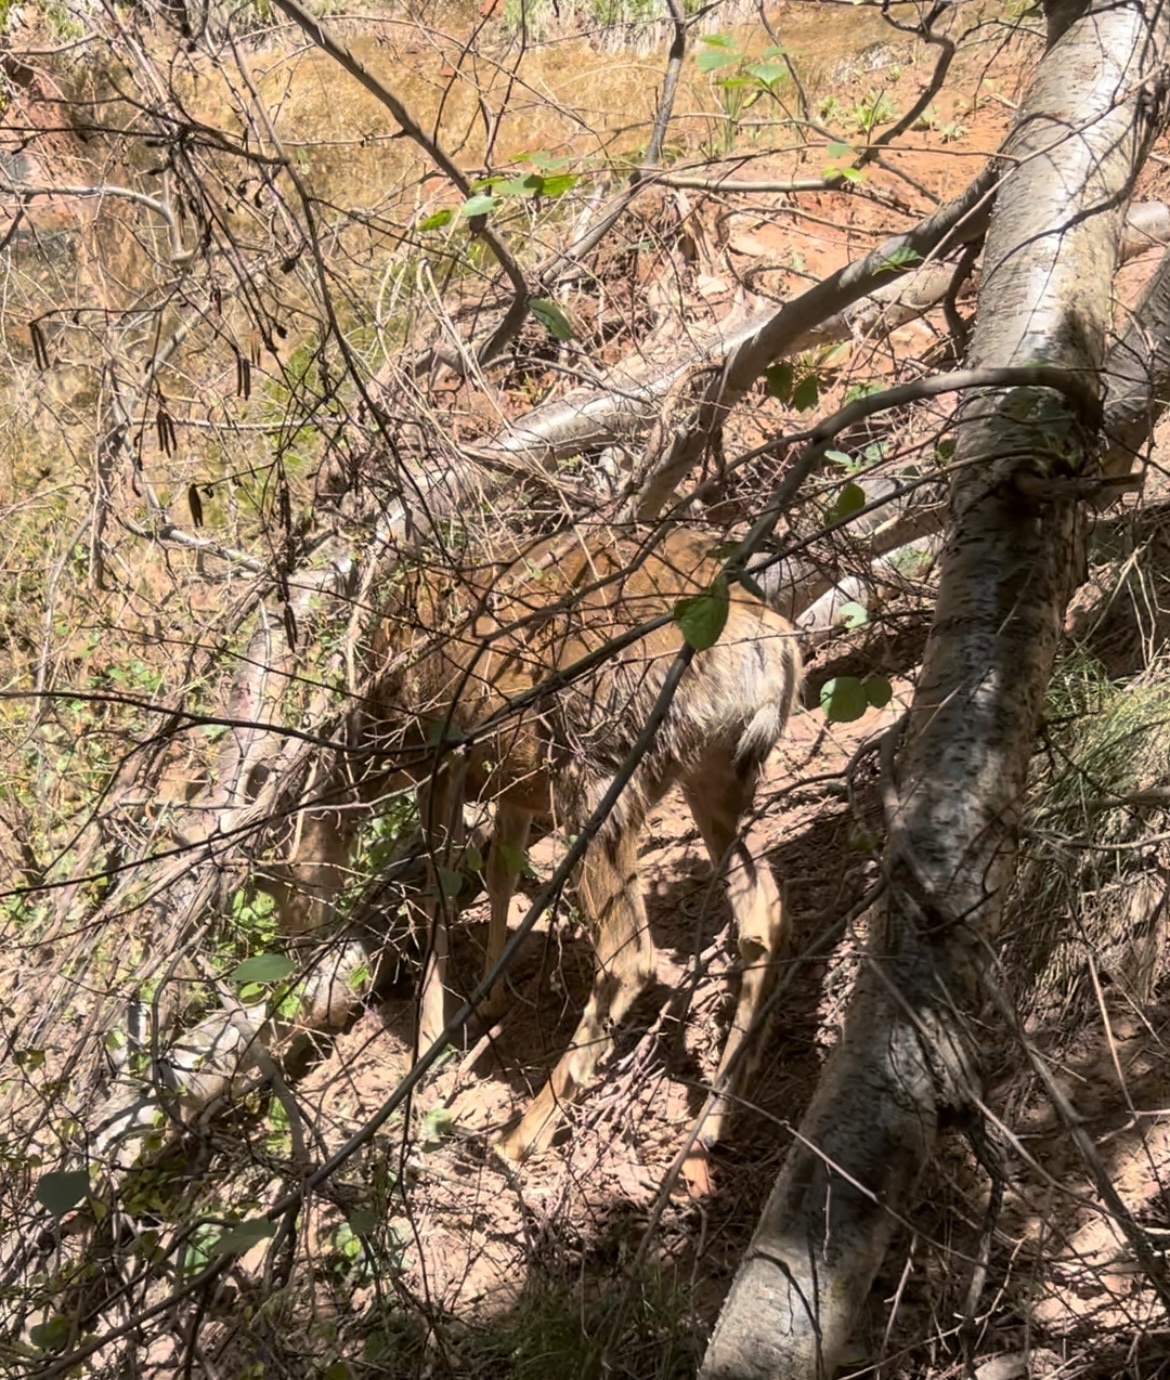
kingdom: Animalia
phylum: Chordata
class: Mammalia
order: Artiodactyla
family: Cervidae
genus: Odocoileus
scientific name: Odocoileus hemionus
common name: Mule deer
